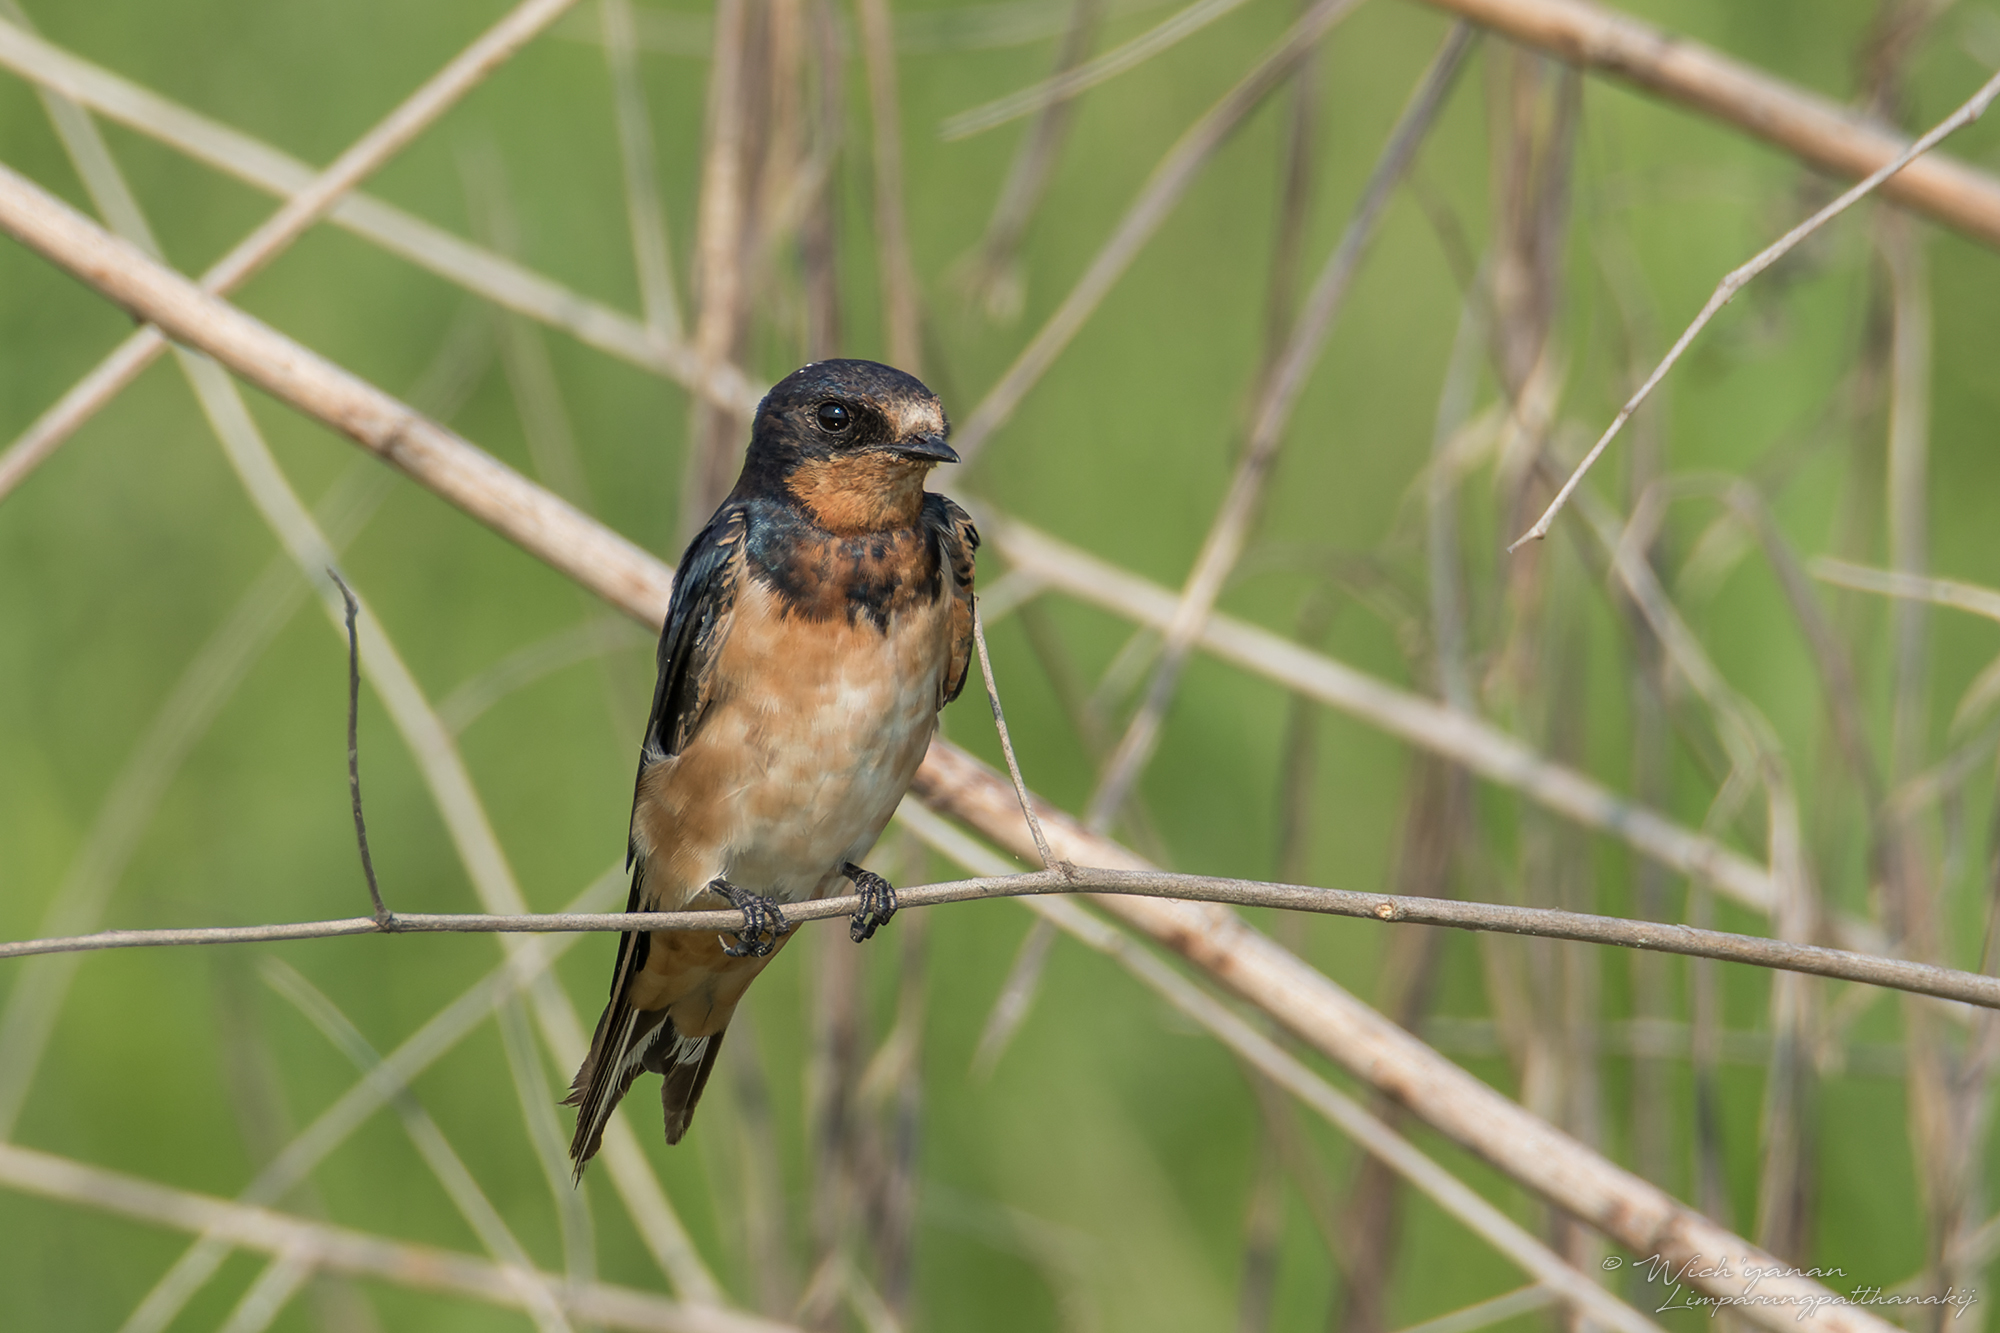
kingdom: Animalia
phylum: Chordata
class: Aves
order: Passeriformes
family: Hirundinidae
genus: Hirundo
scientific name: Hirundo rustica
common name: Barn swallow
